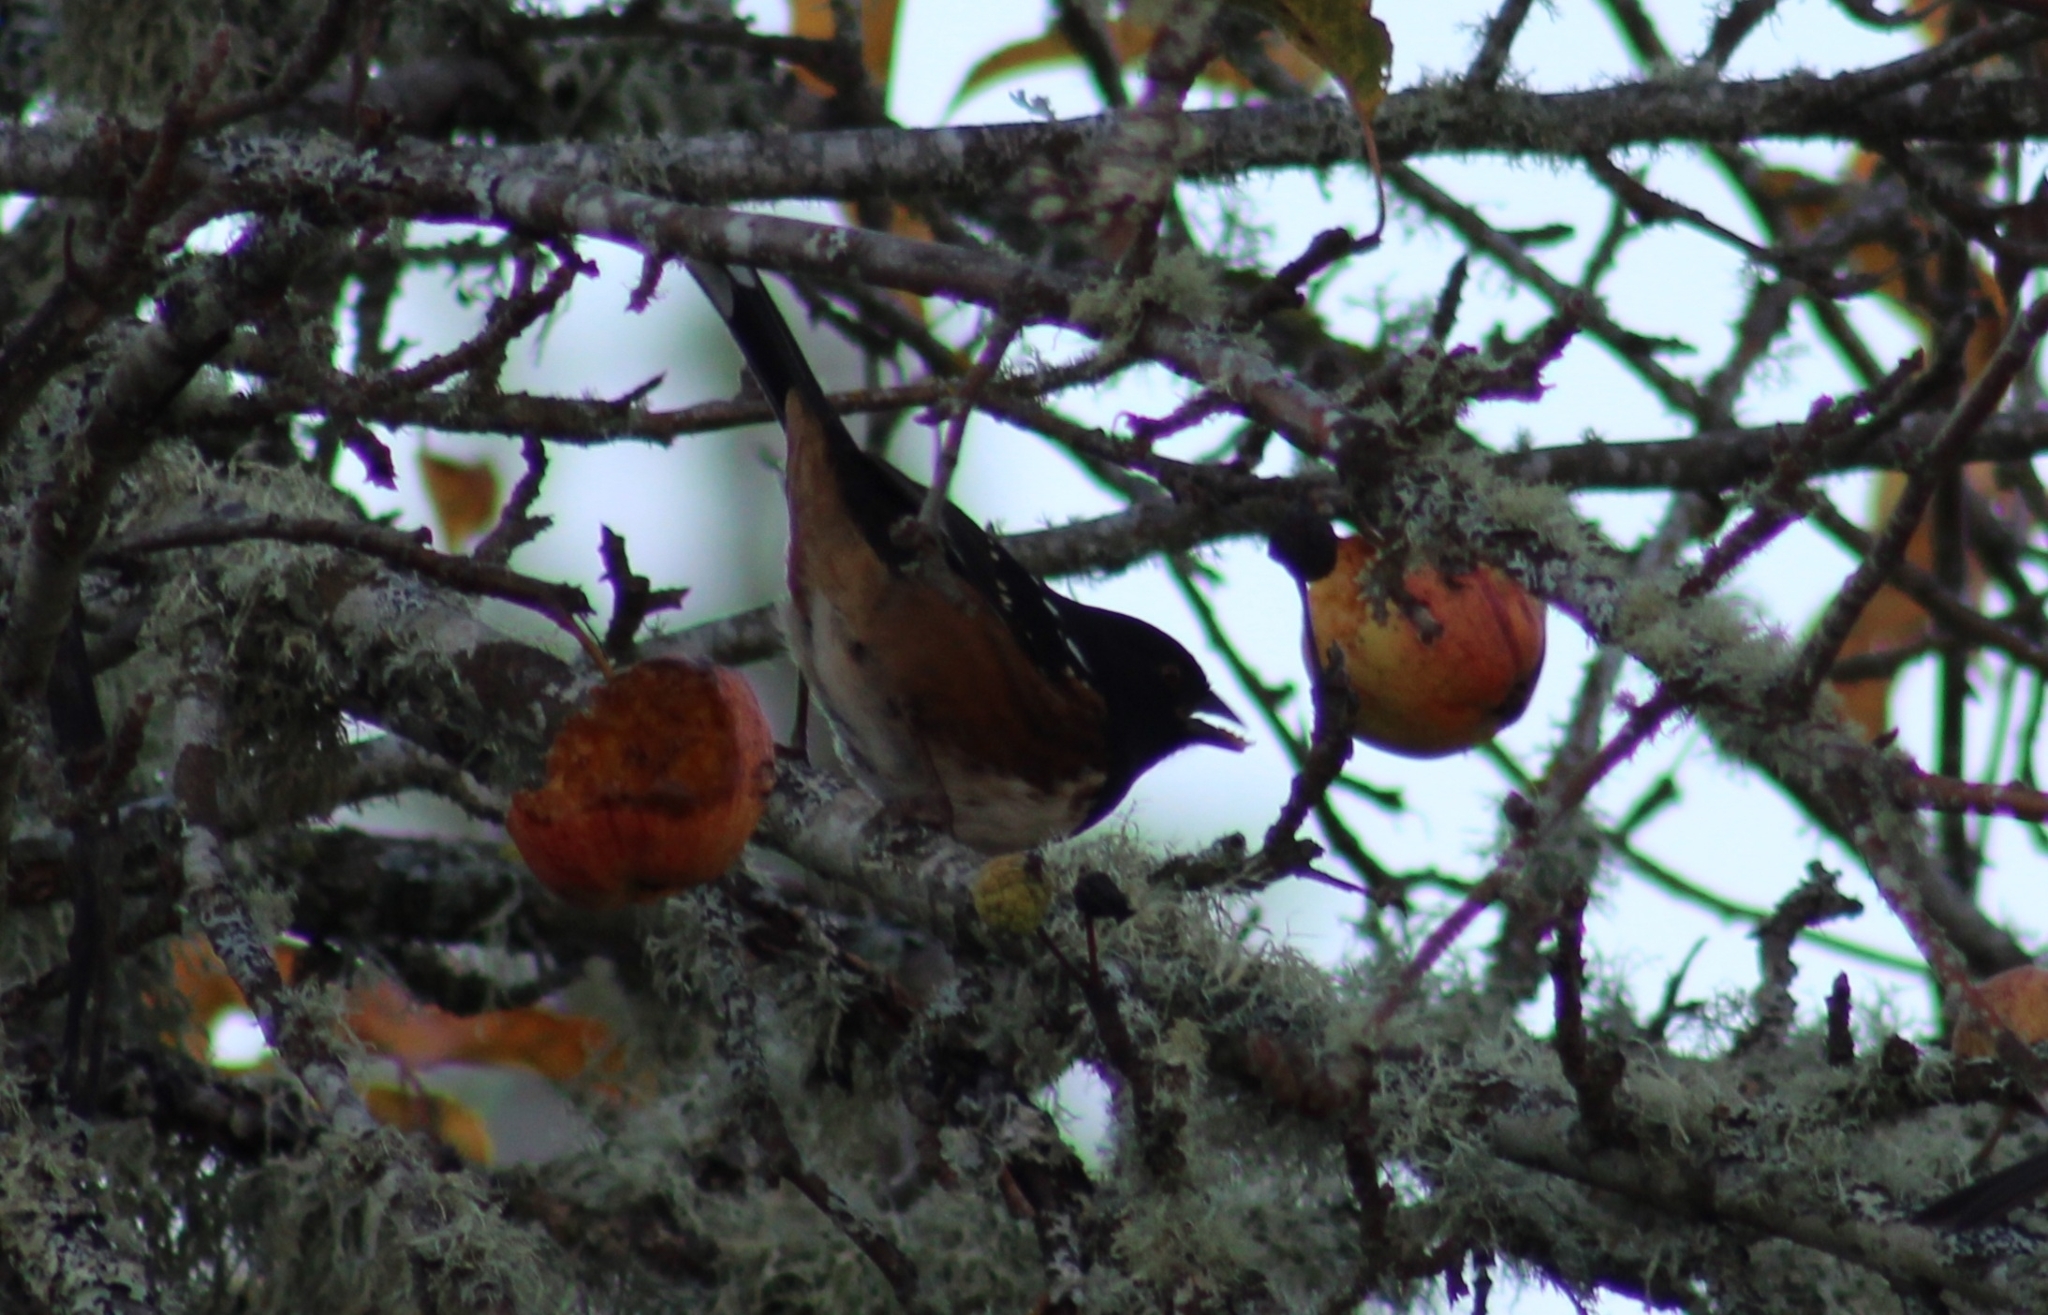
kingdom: Animalia
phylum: Chordata
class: Aves
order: Passeriformes
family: Passerellidae
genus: Pipilo
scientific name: Pipilo maculatus
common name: Spotted towhee
